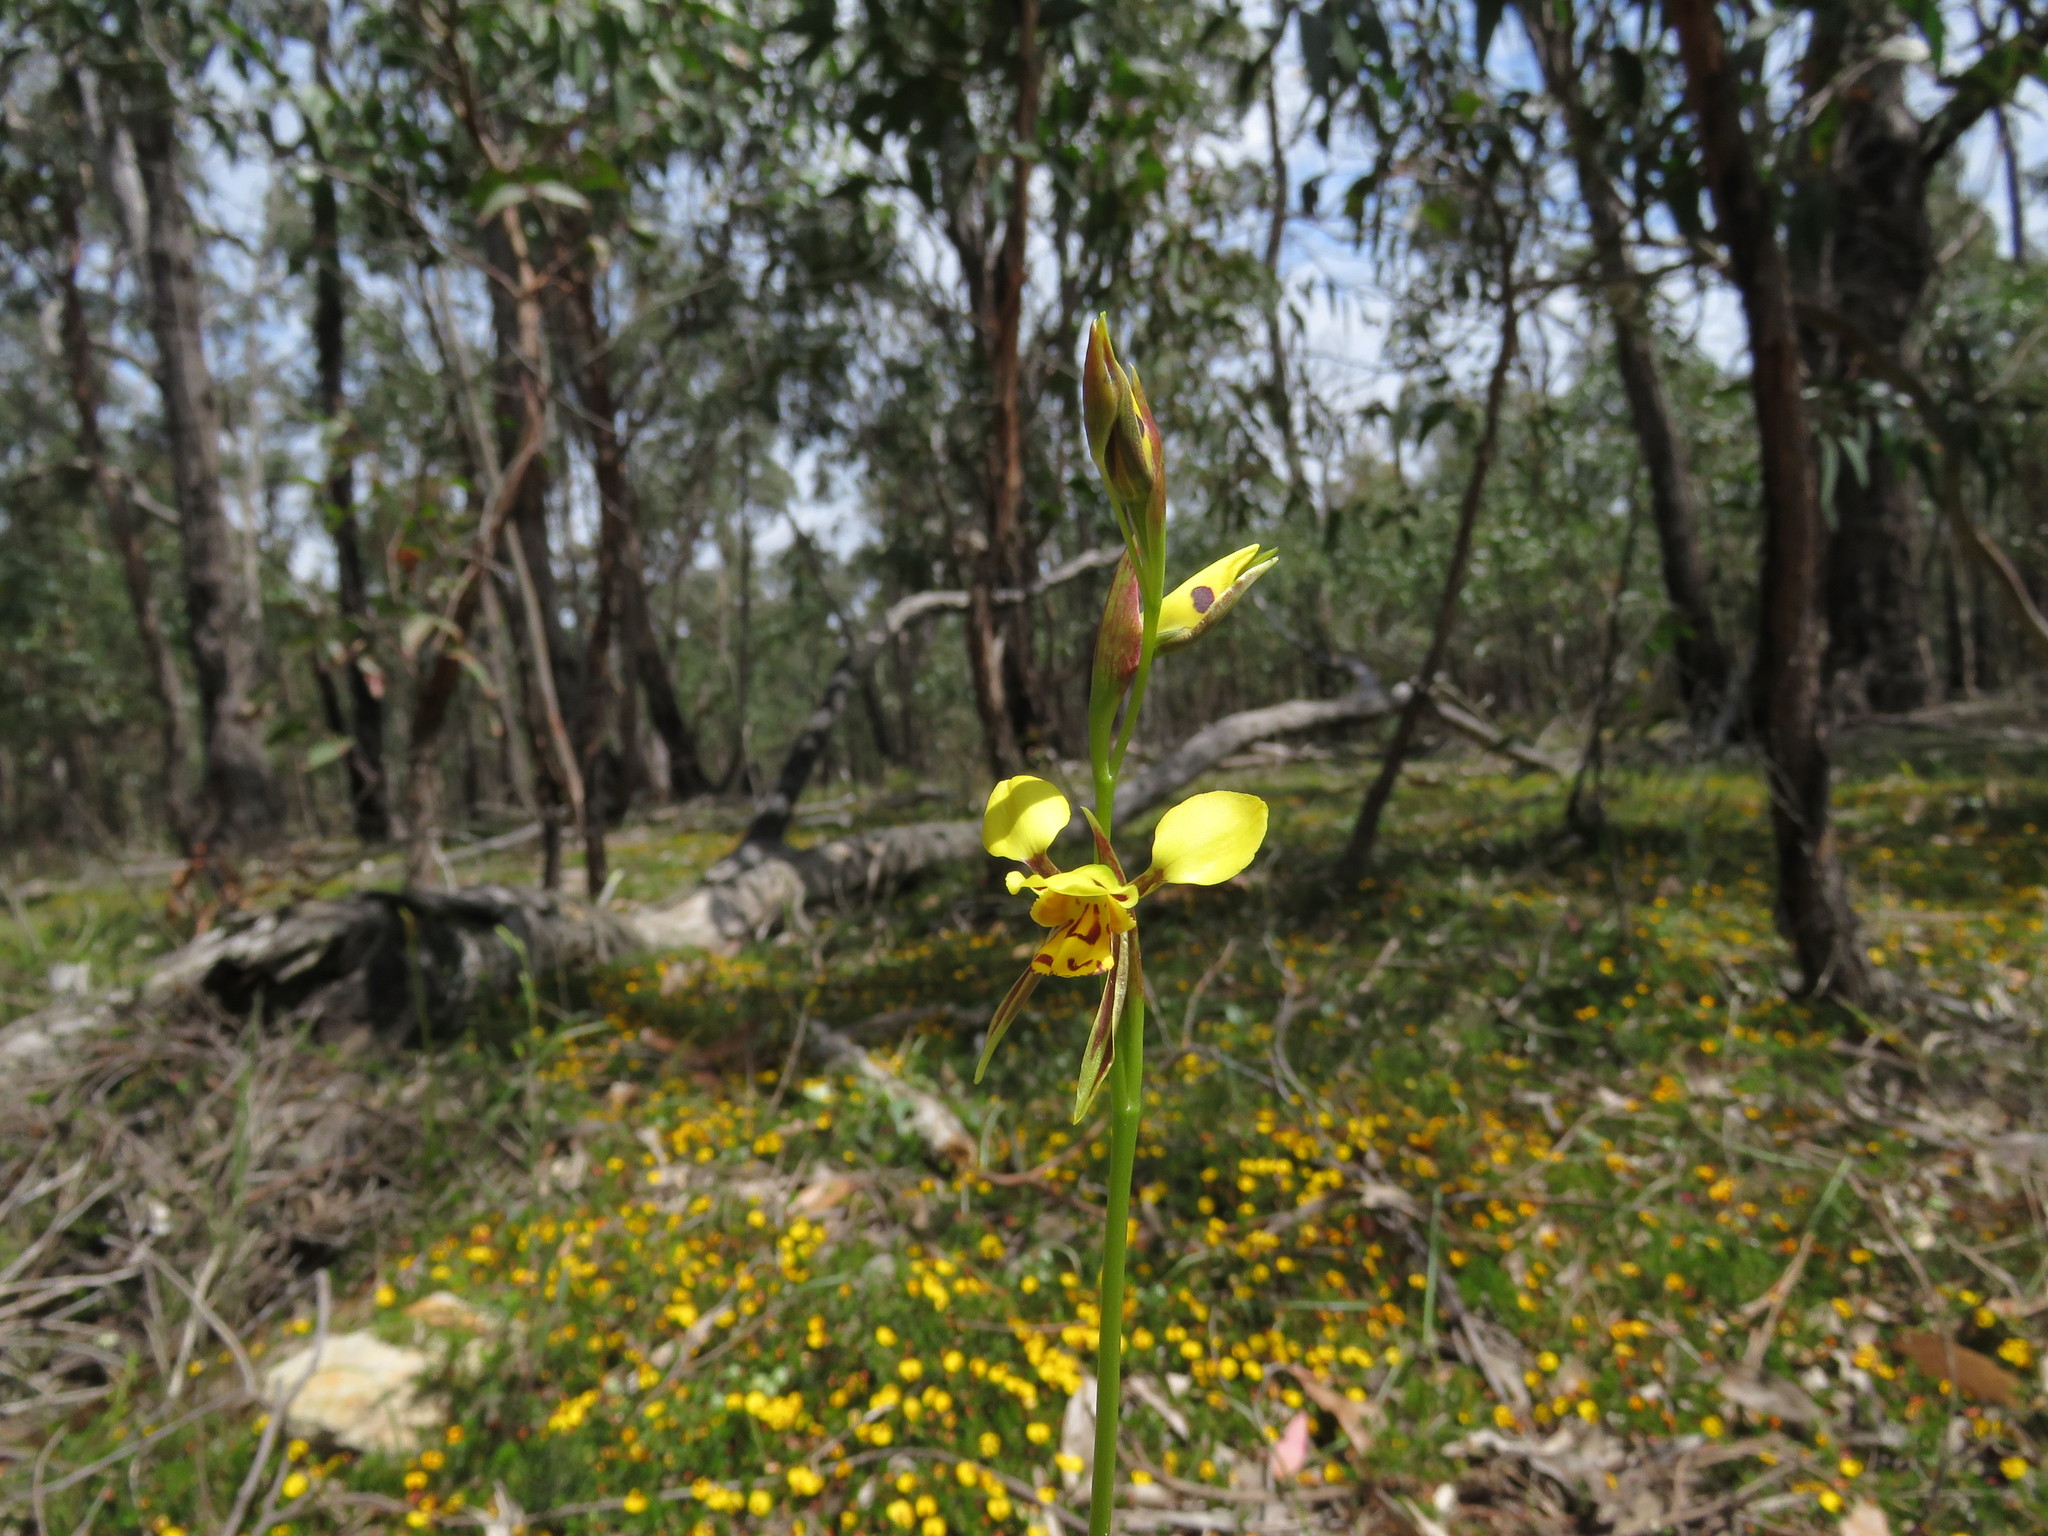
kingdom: Plantae
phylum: Tracheophyta
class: Liliopsida
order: Asparagales
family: Orchidaceae
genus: Diuris
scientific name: Diuris sulphurea
